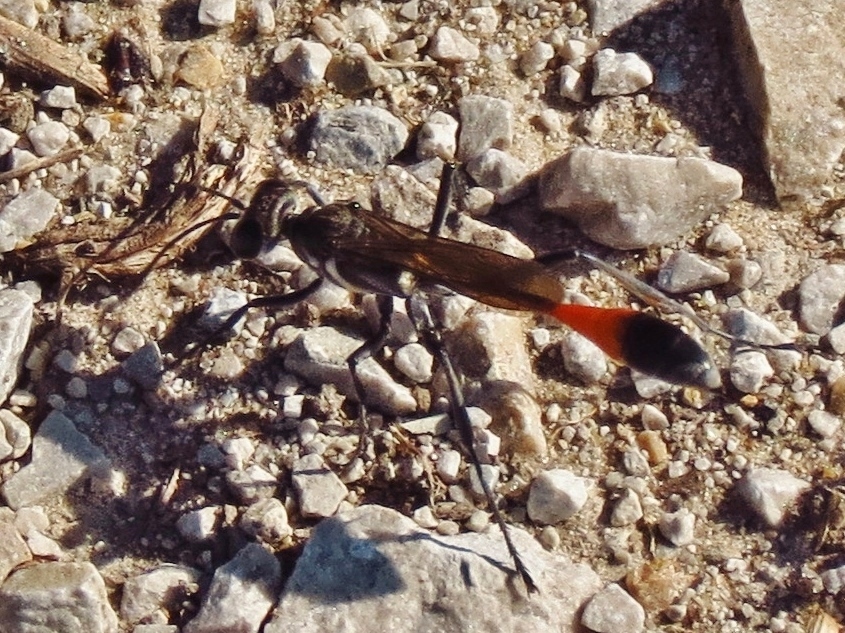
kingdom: Animalia
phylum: Arthropoda
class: Insecta
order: Hymenoptera
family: Sphecidae
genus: Ammophila
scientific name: Ammophila procera
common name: Common thread-waisted wasp
